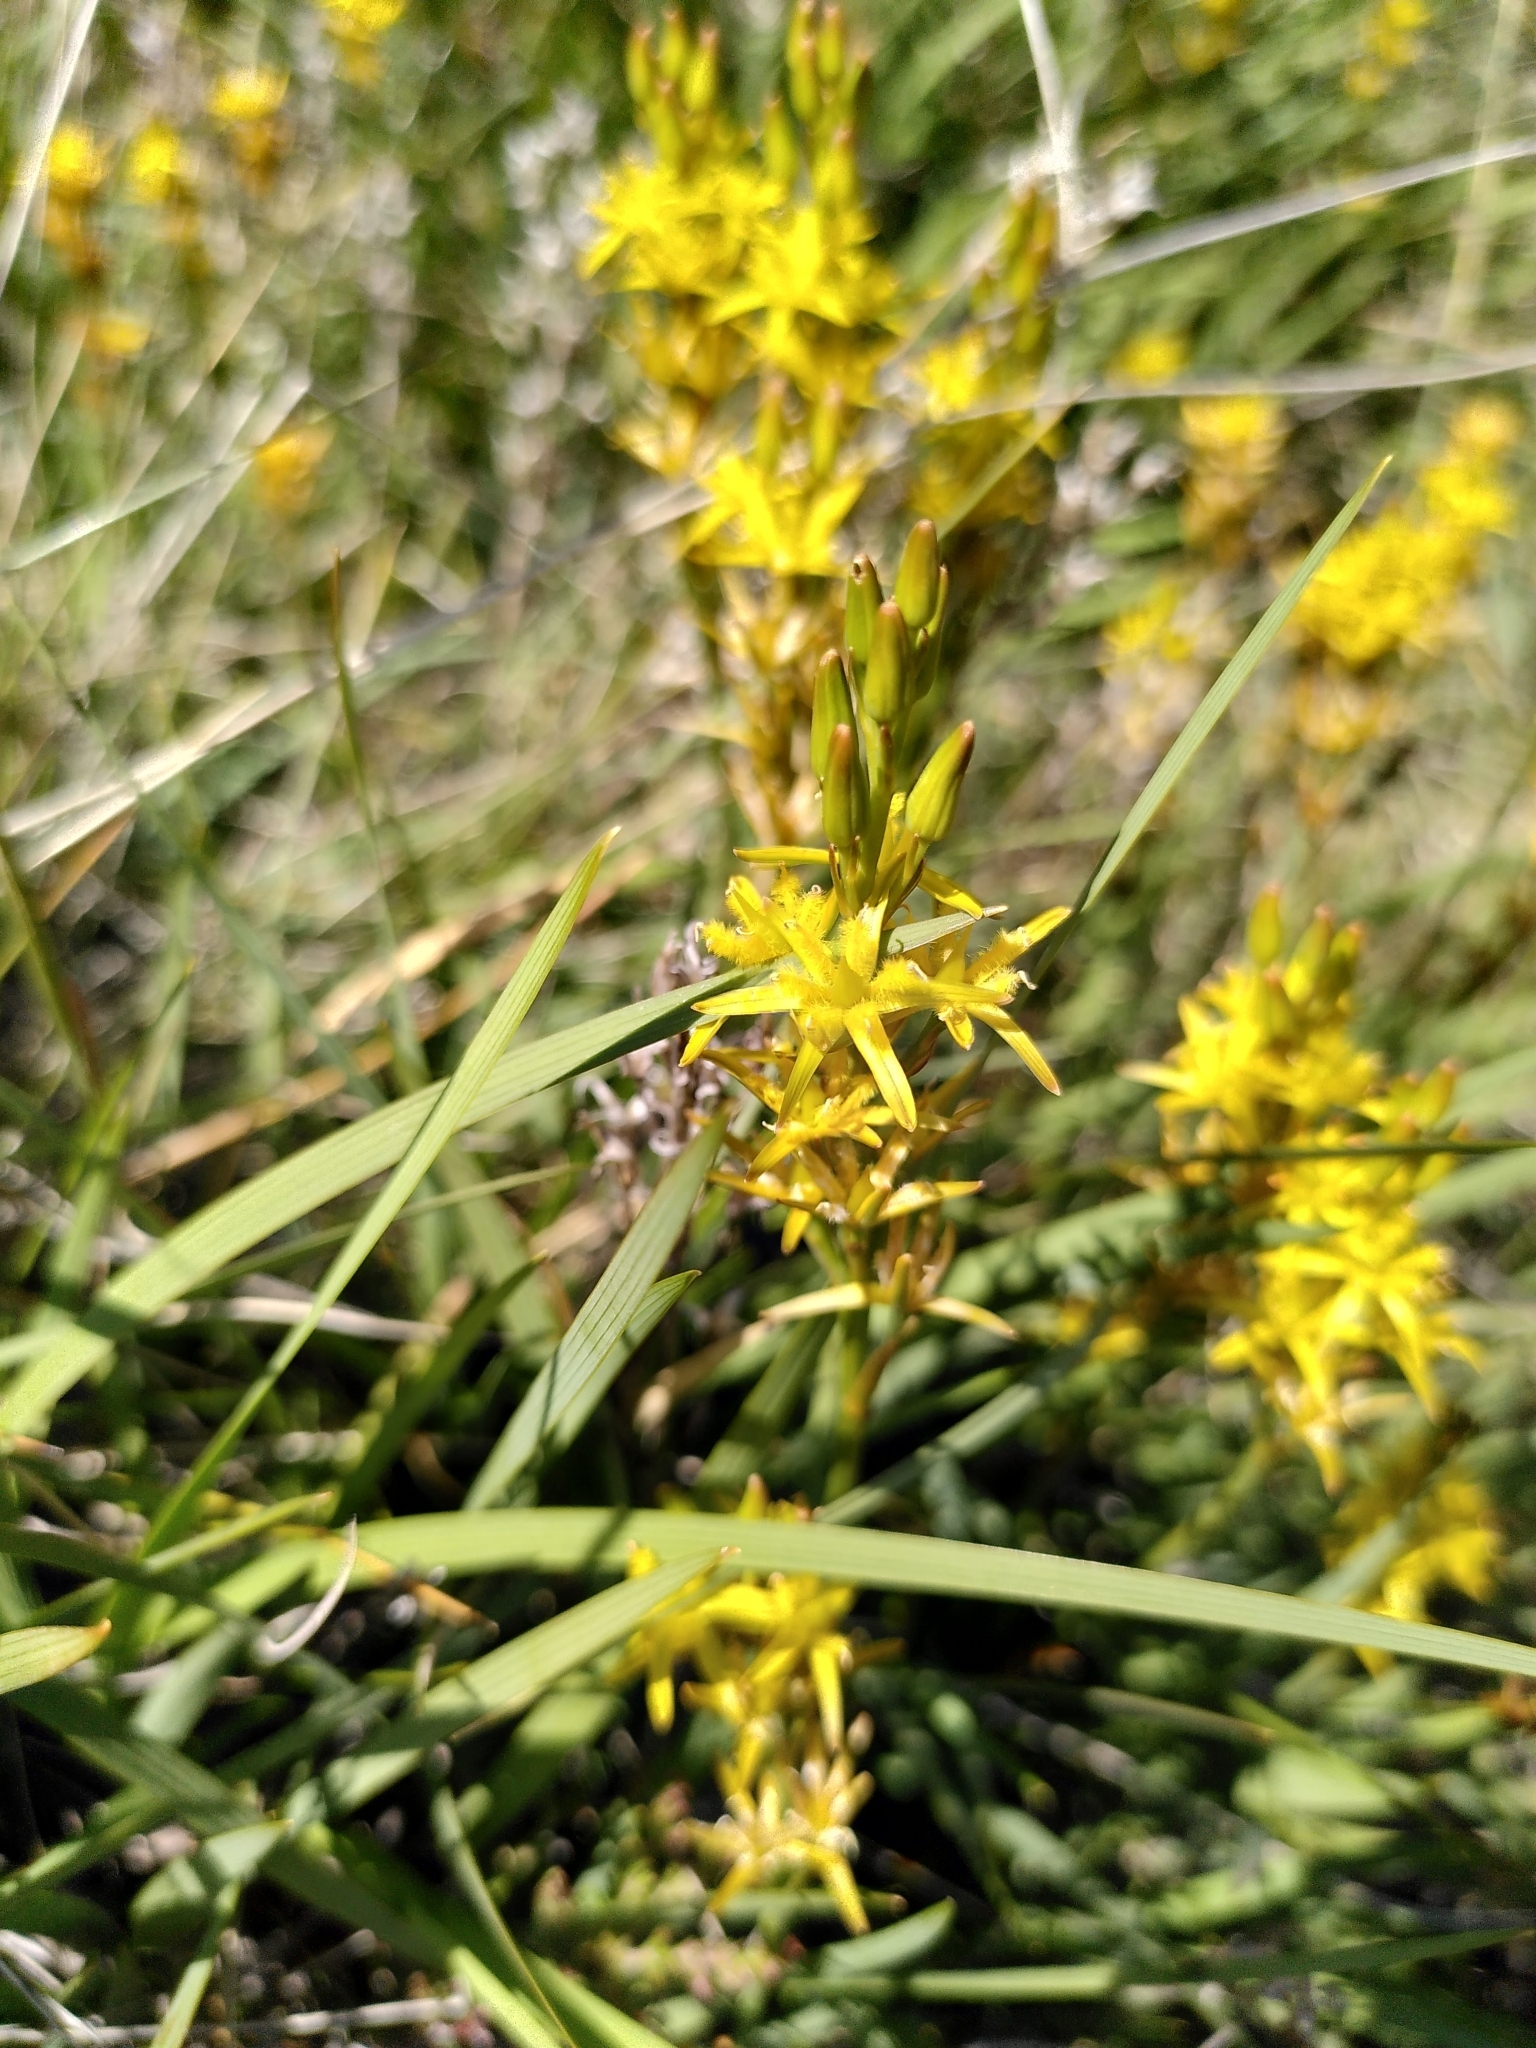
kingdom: Plantae
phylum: Tracheophyta
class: Liliopsida
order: Dioscoreales
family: Nartheciaceae
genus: Narthecium
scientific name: Narthecium ossifragum
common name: Bog asphodel
